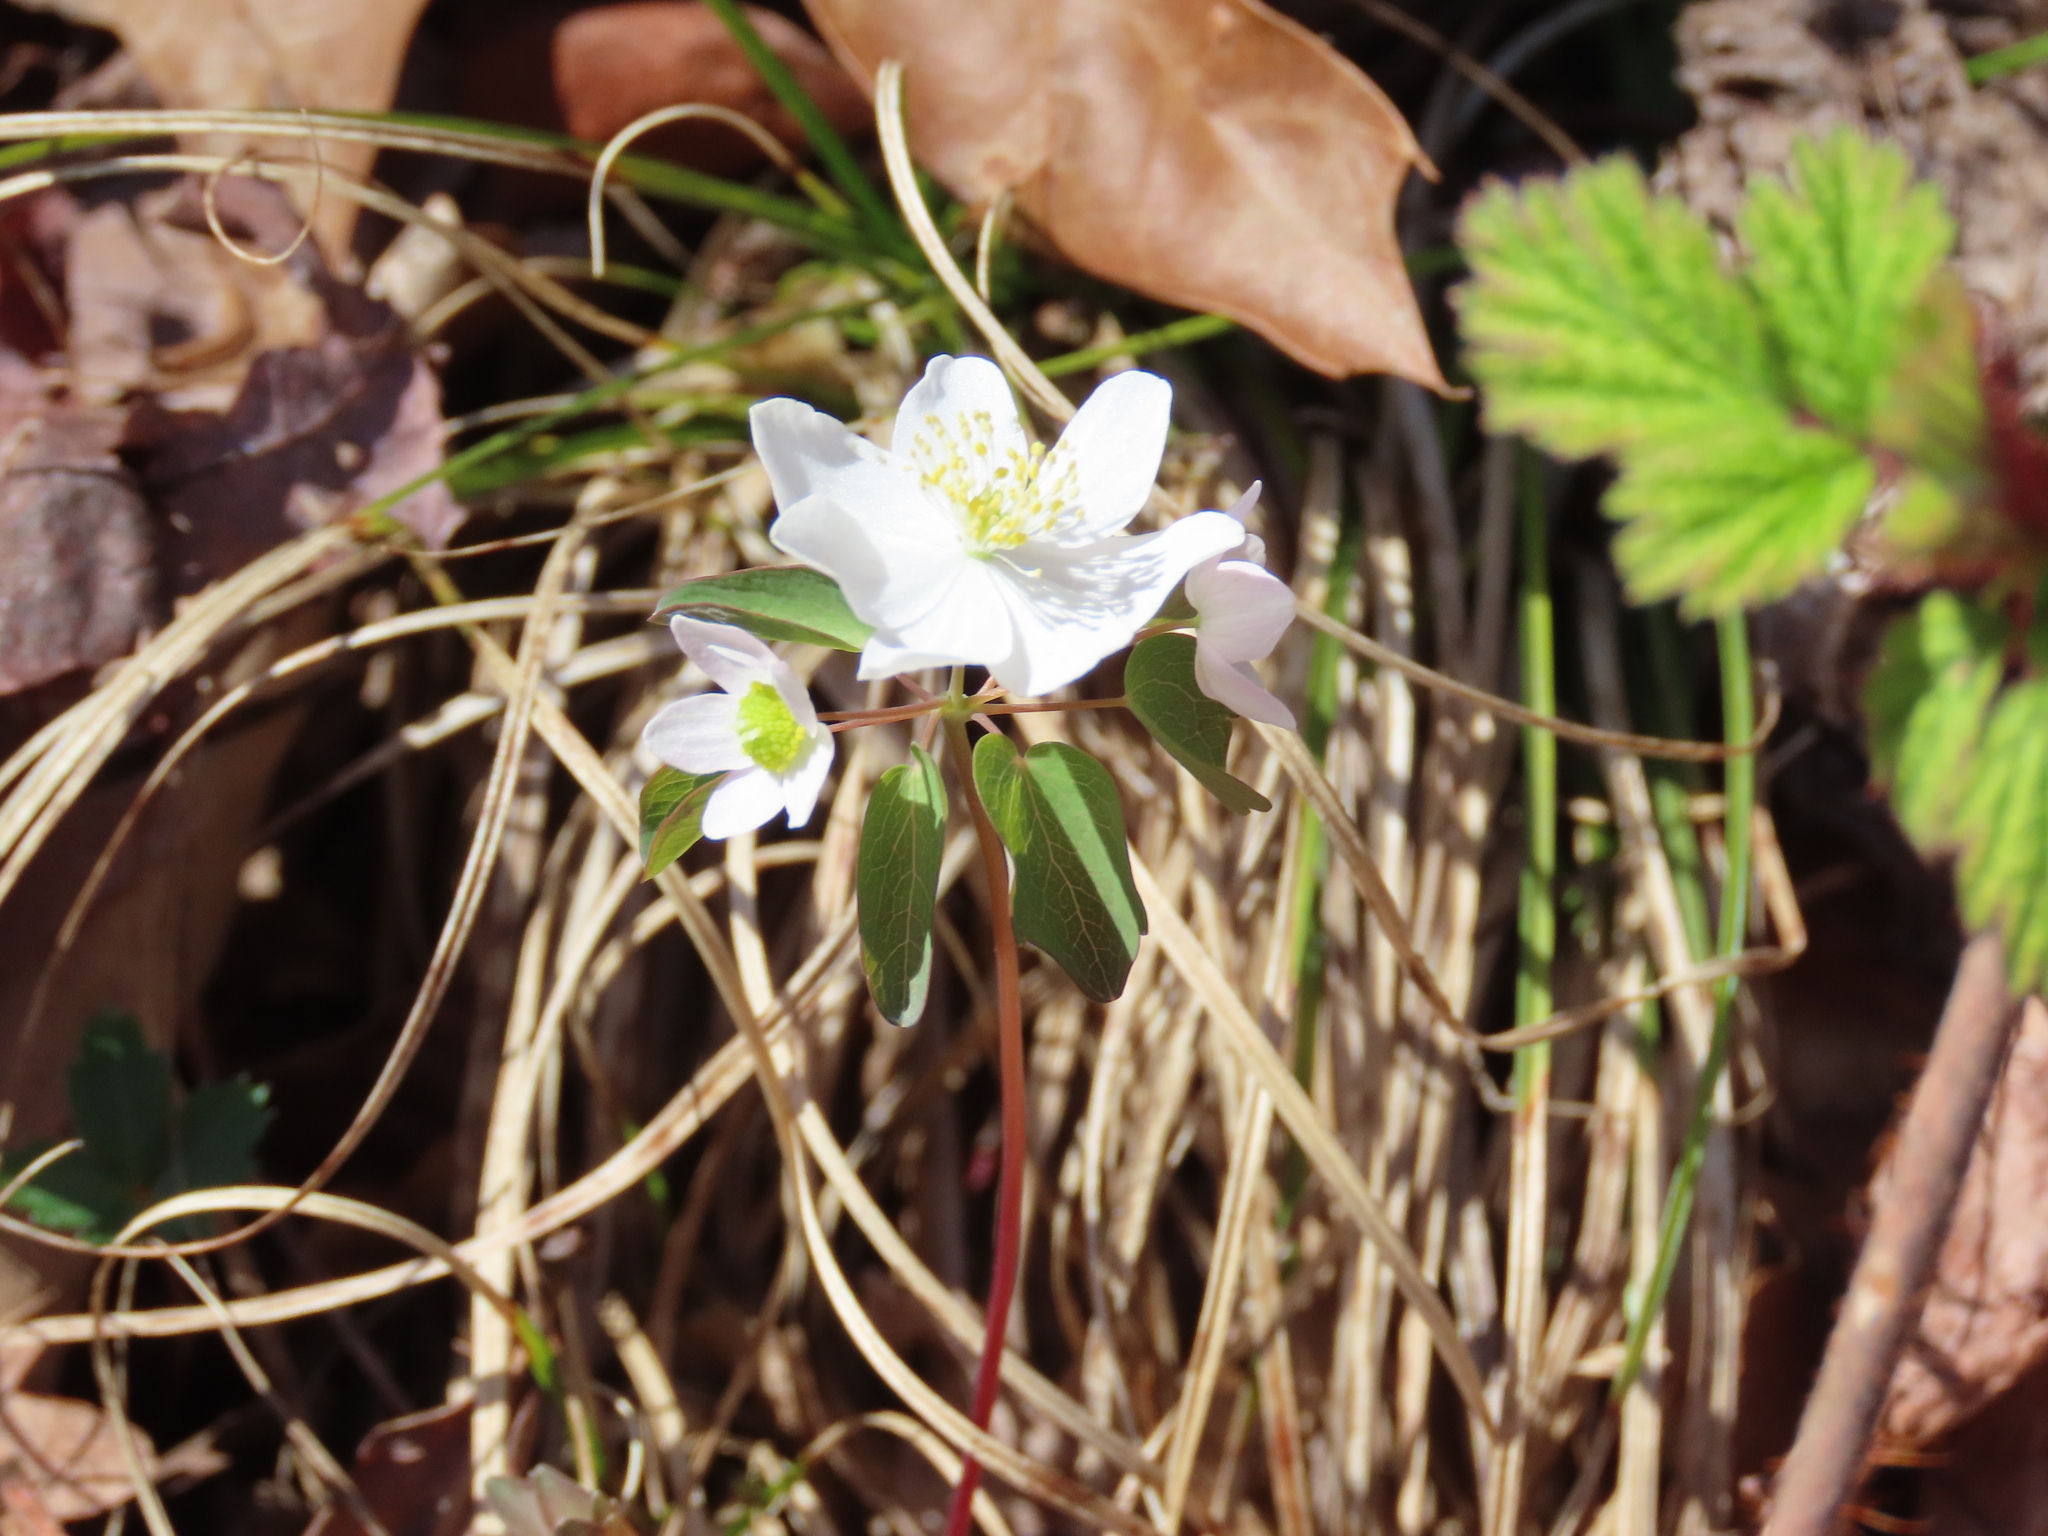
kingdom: Plantae
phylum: Tracheophyta
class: Magnoliopsida
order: Ranunculales
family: Ranunculaceae
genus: Thalictrum
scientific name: Thalictrum thalictroides
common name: Rue-anemone
